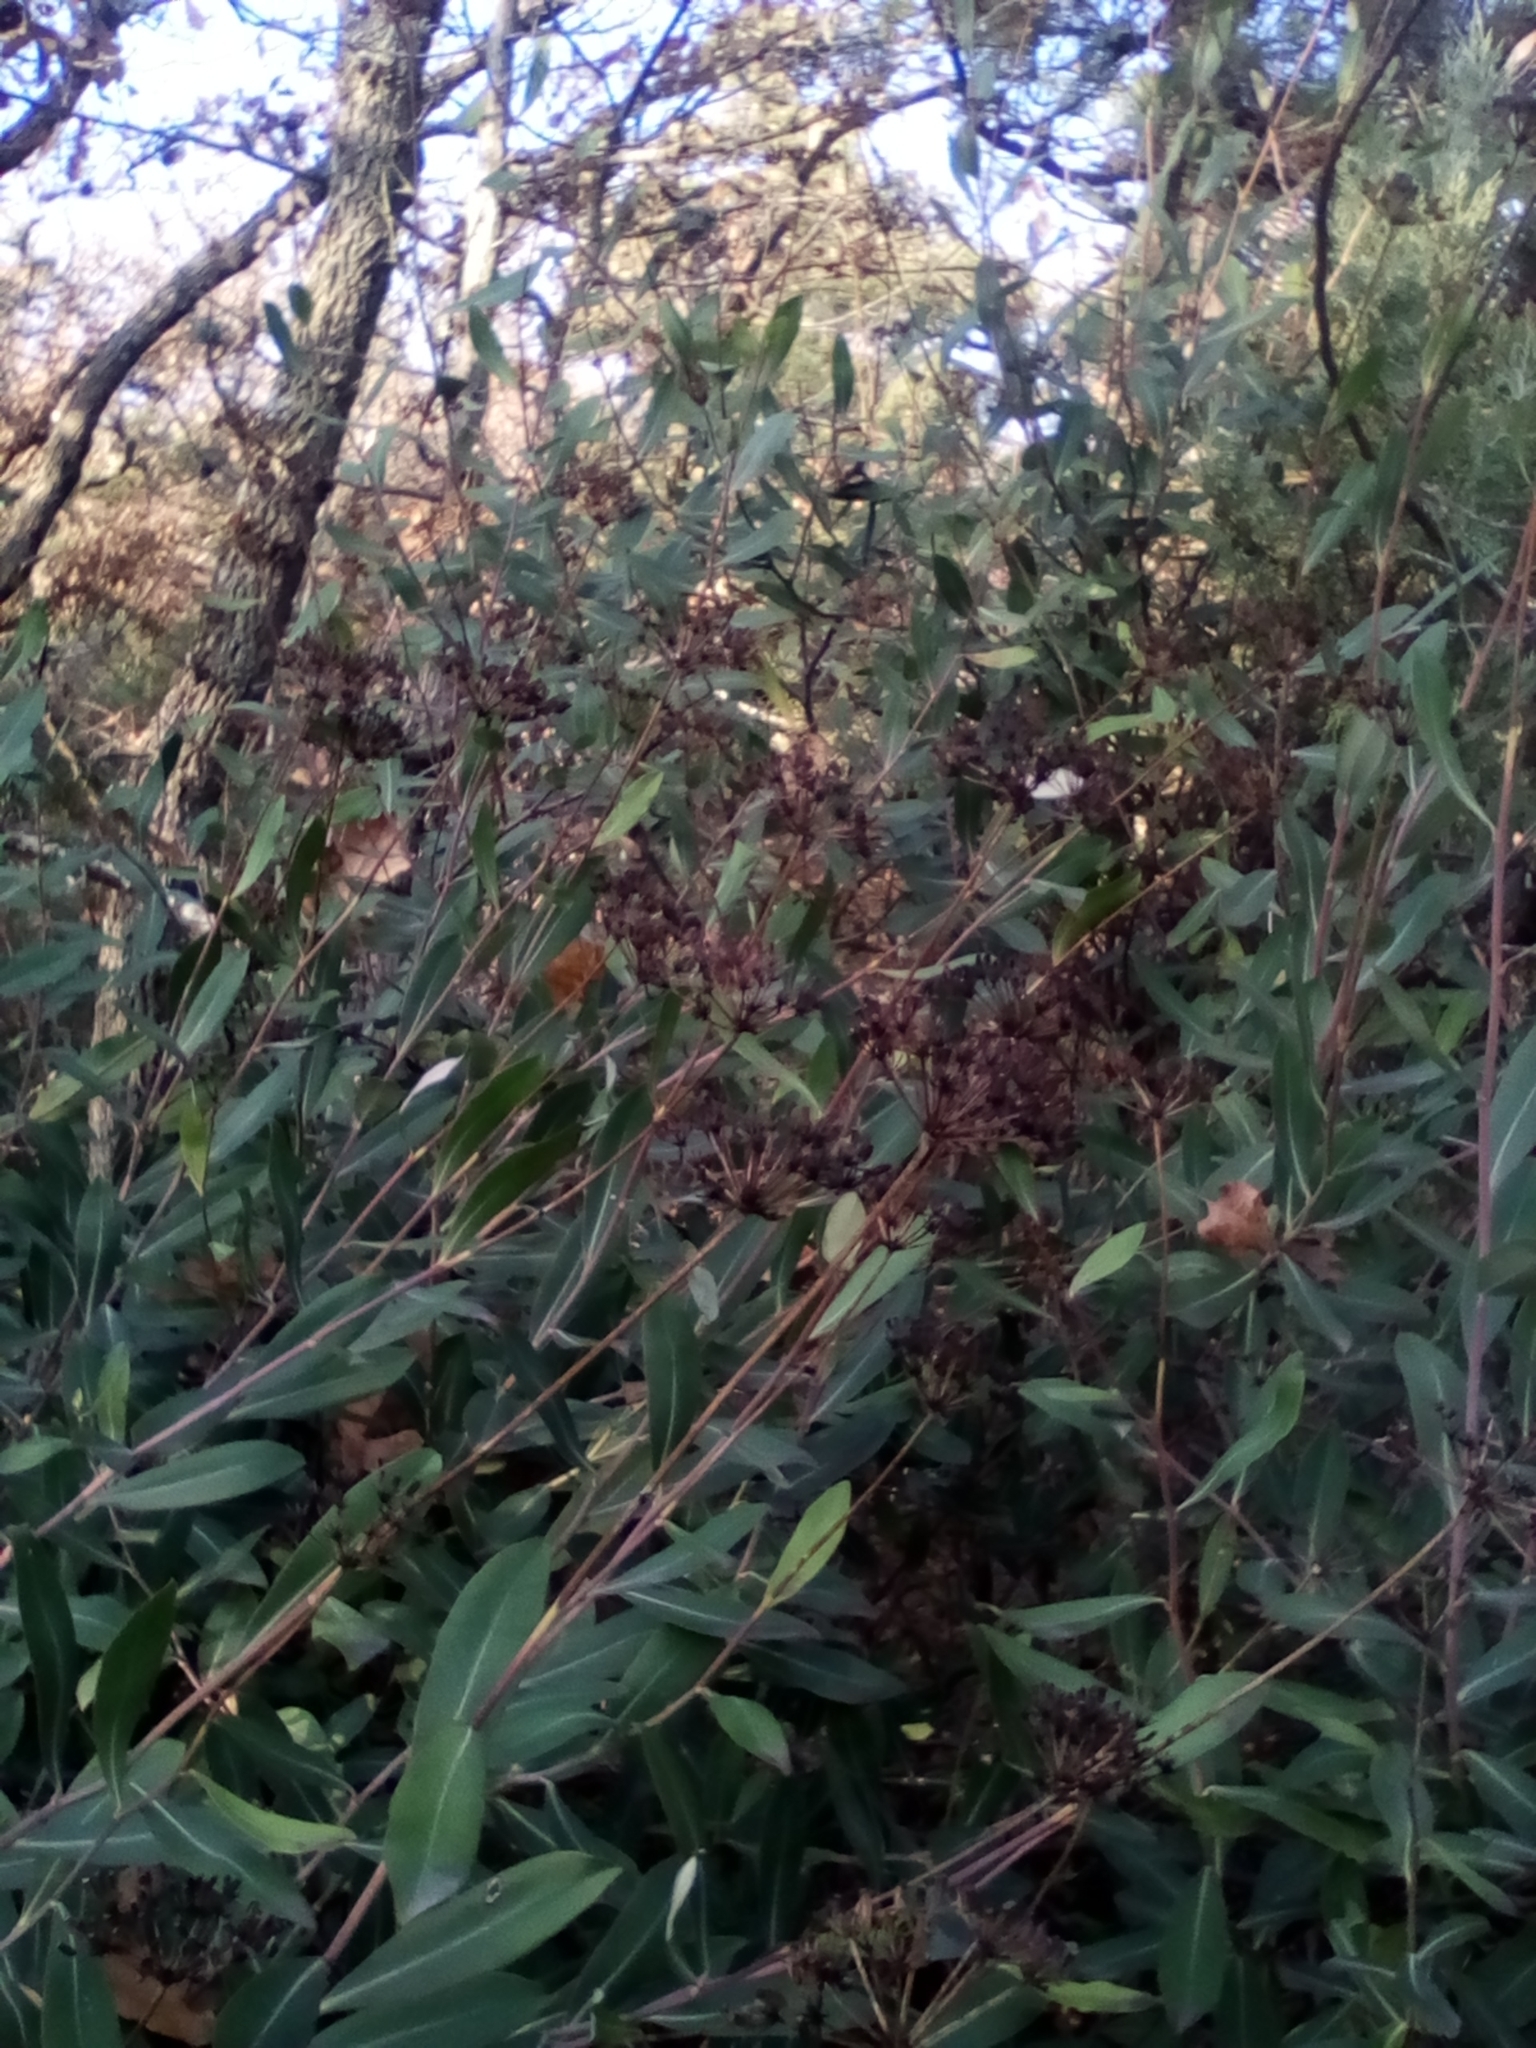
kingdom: Plantae
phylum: Tracheophyta
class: Magnoliopsida
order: Apiales
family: Apiaceae
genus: Bupleurum
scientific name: Bupleurum fruticosum
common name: Shrubby hare's-ear
